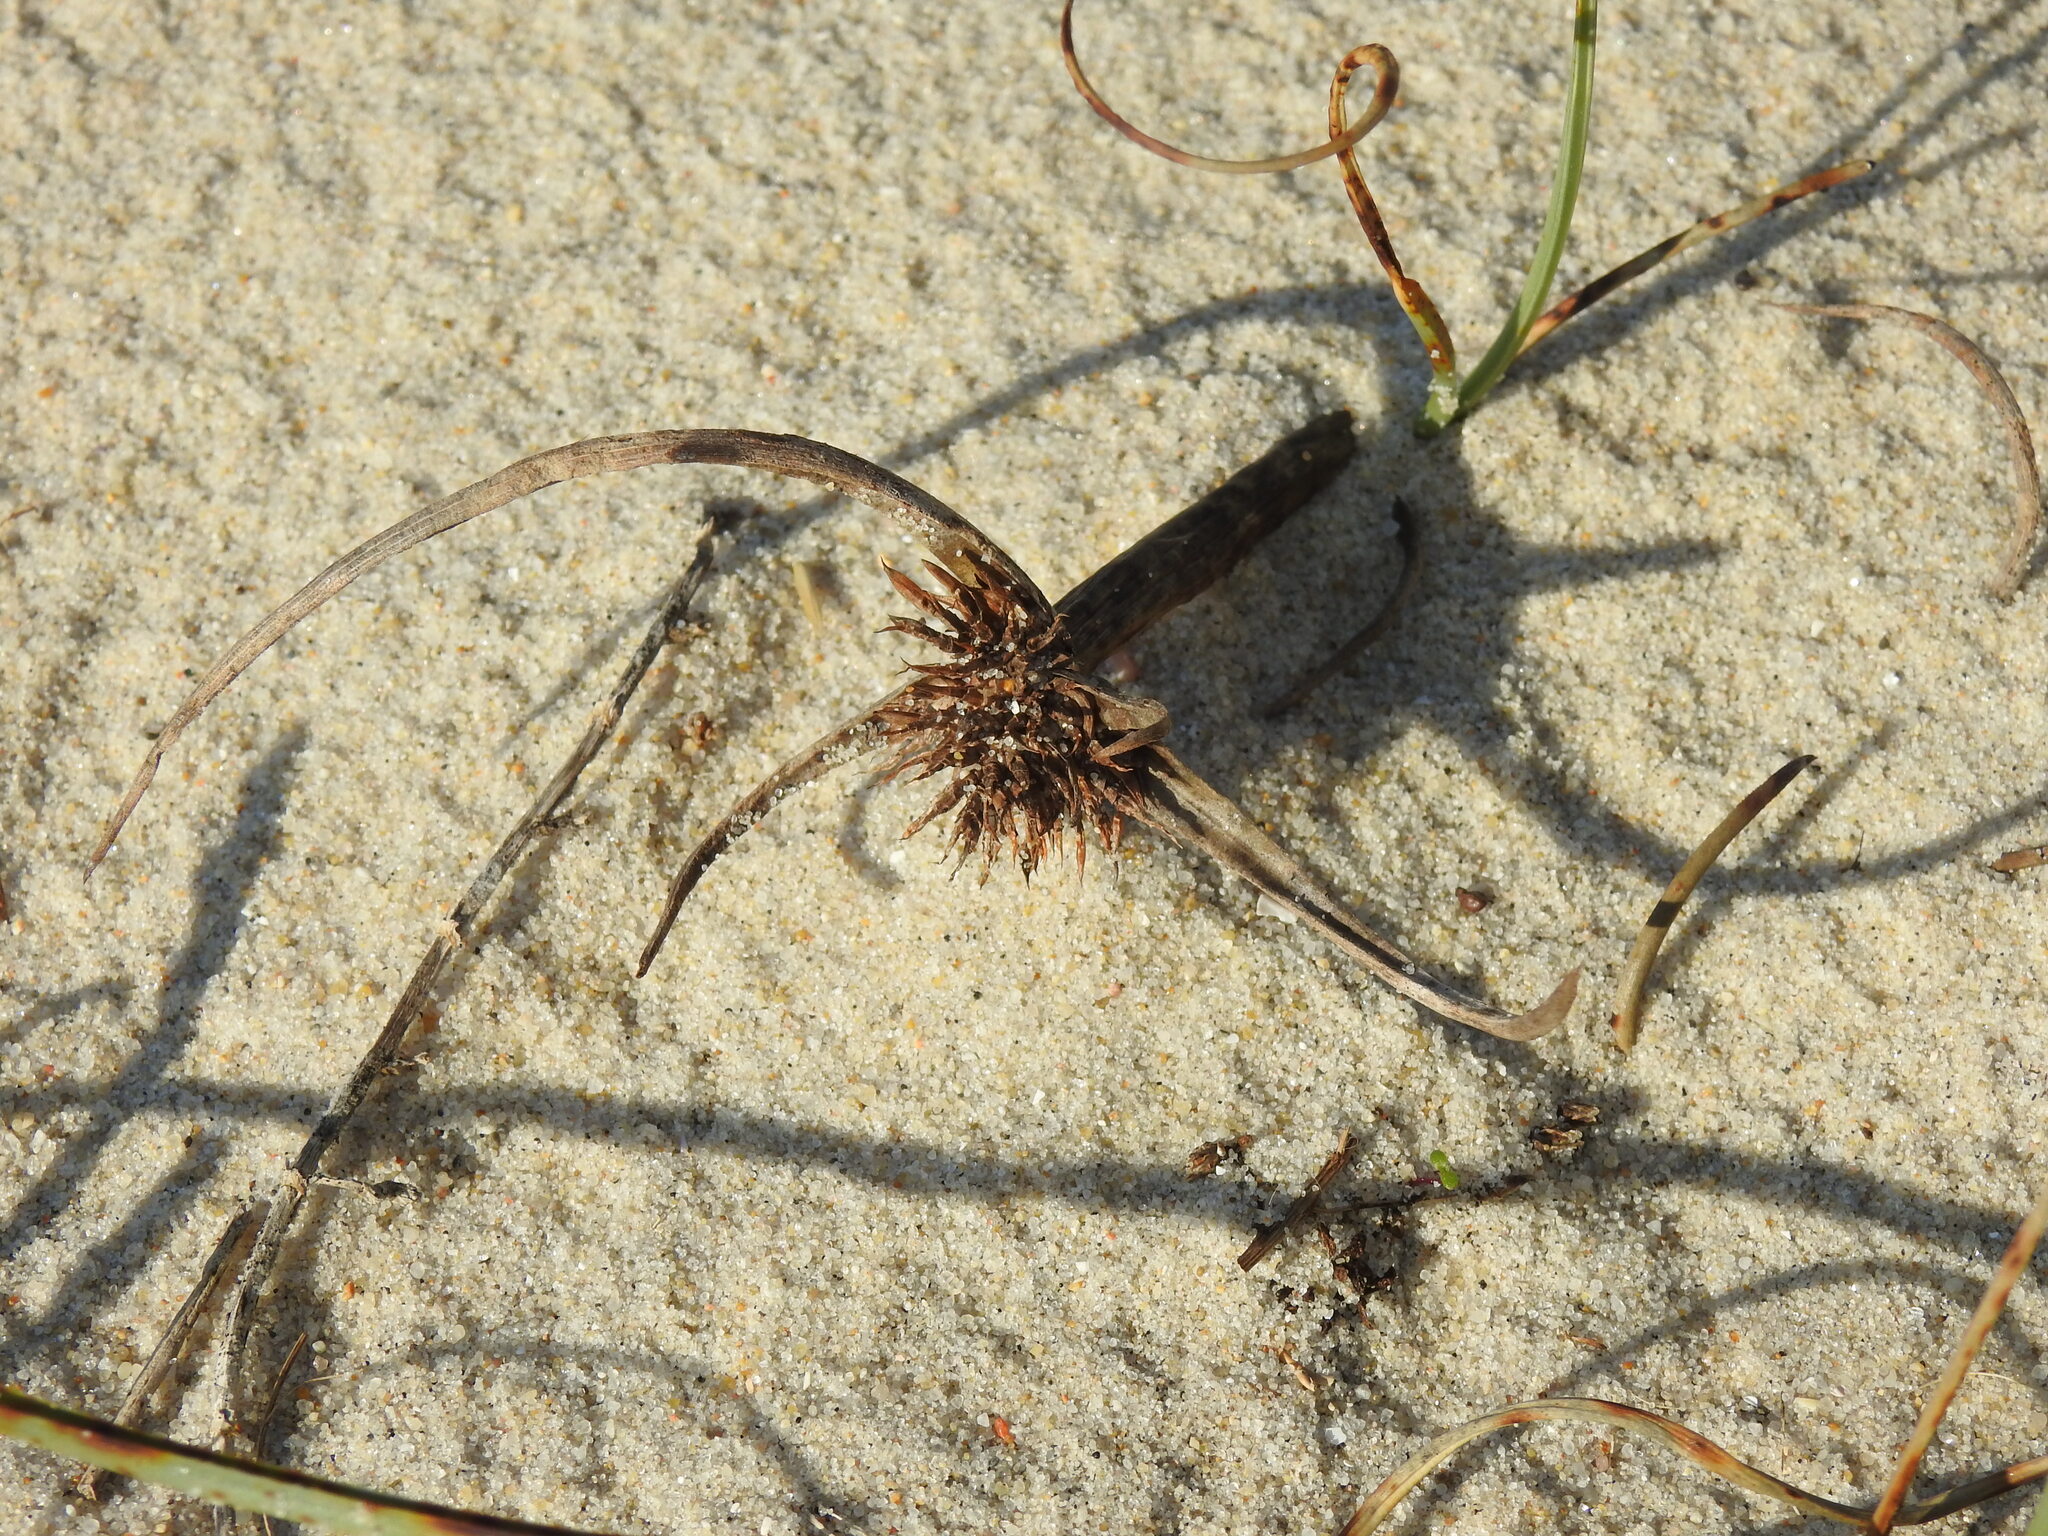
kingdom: Plantae
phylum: Tracheophyta
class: Liliopsida
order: Poales
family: Cyperaceae
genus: Cyperus
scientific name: Cyperus capitatus
